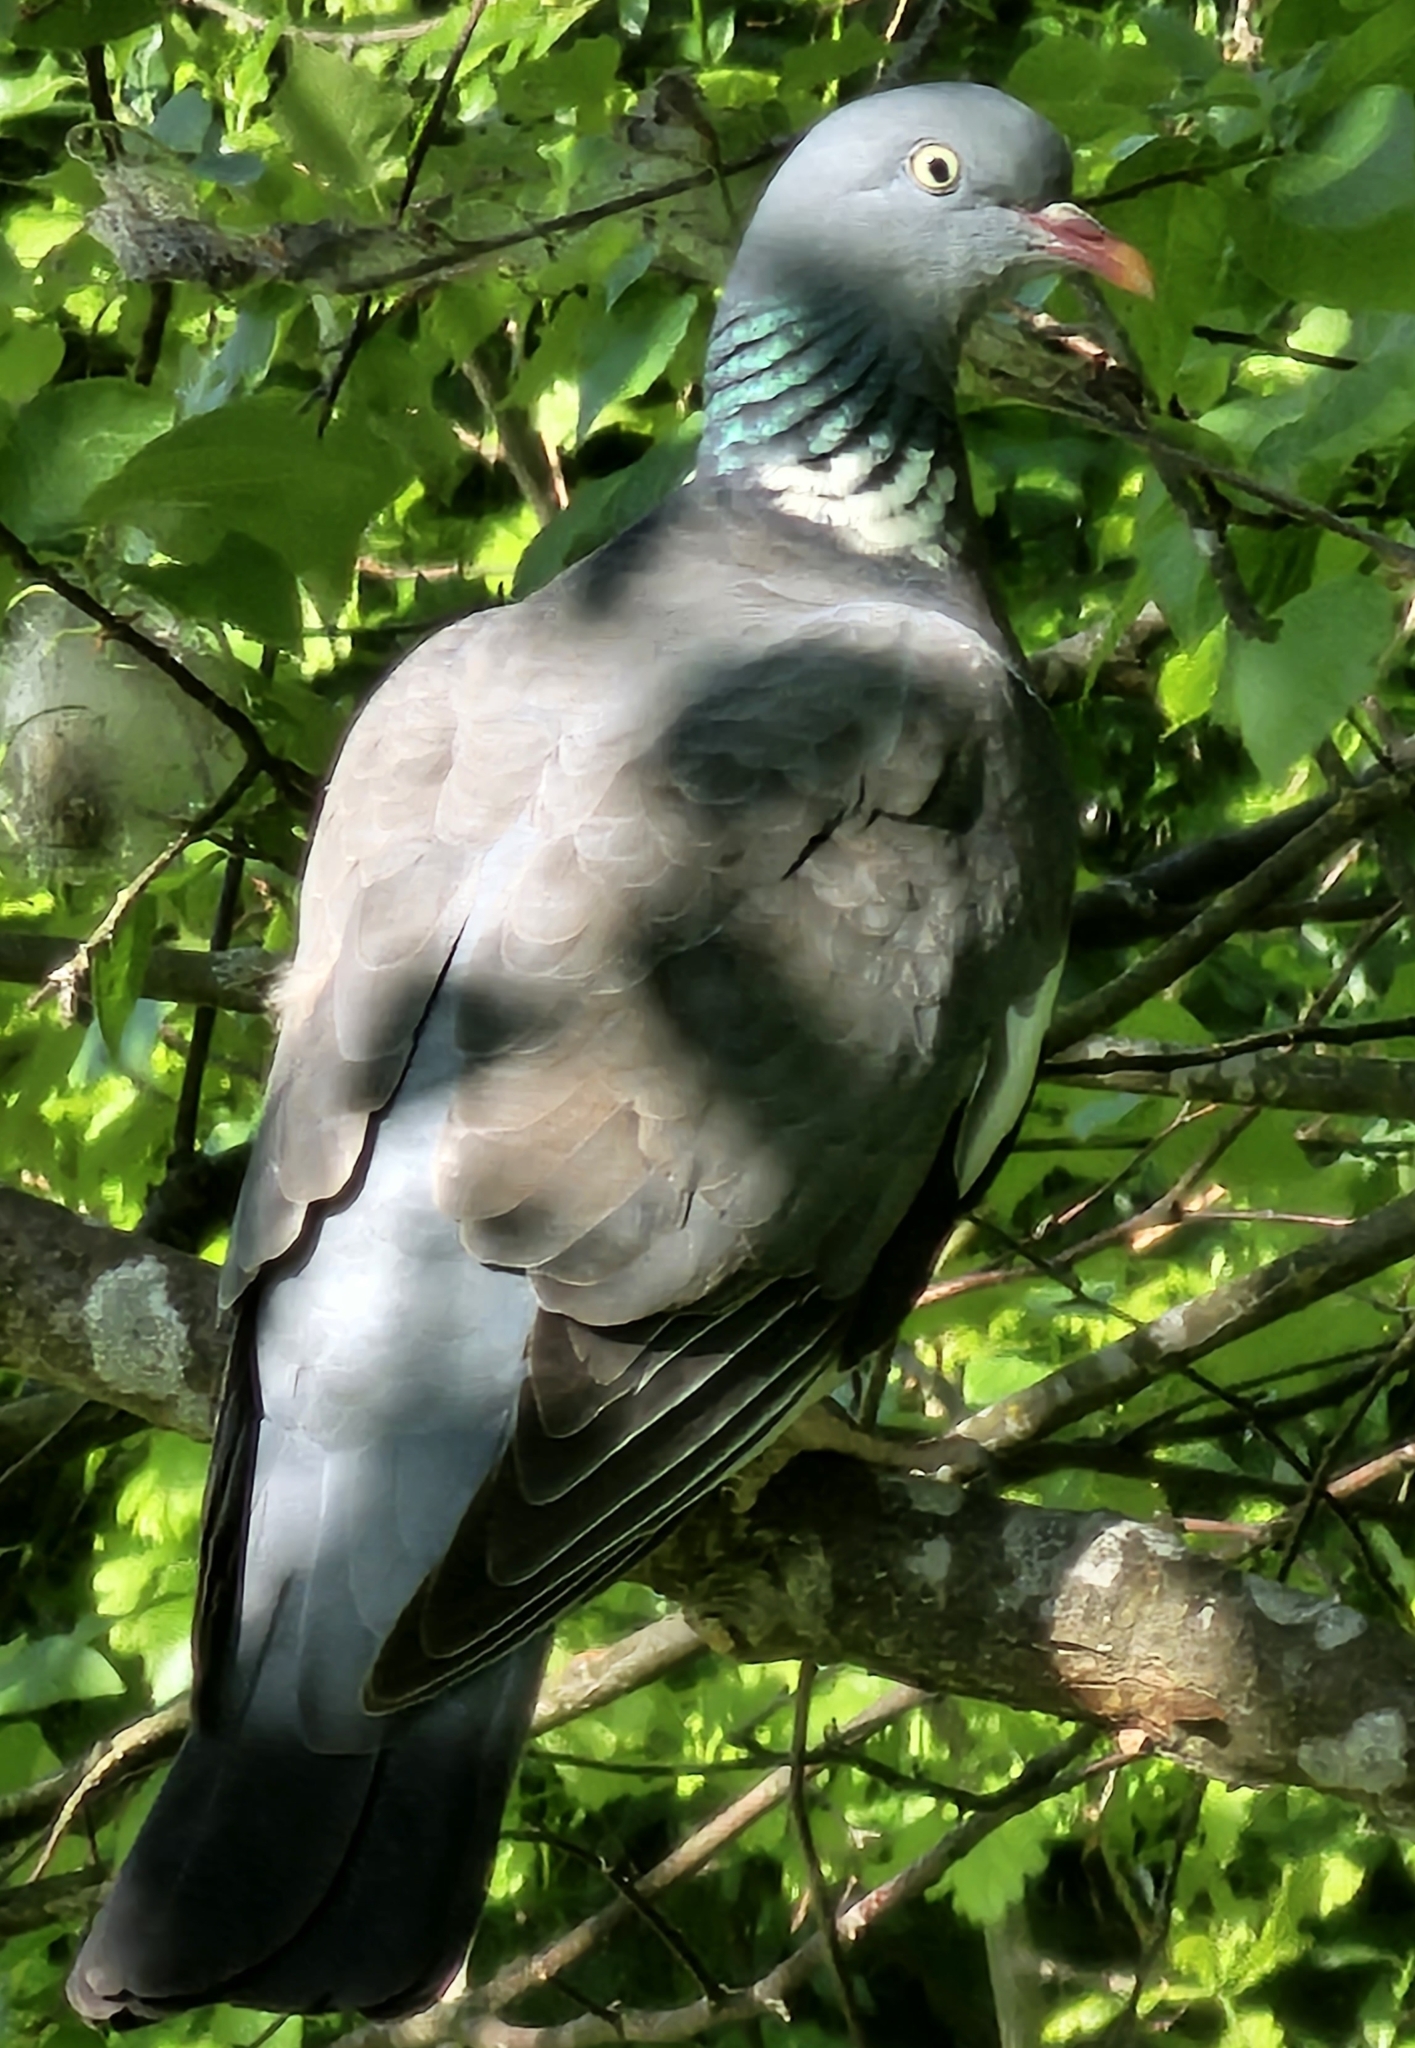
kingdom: Animalia
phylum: Chordata
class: Aves
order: Columbiformes
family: Columbidae
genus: Columba
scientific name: Columba palumbus
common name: Common wood pigeon
